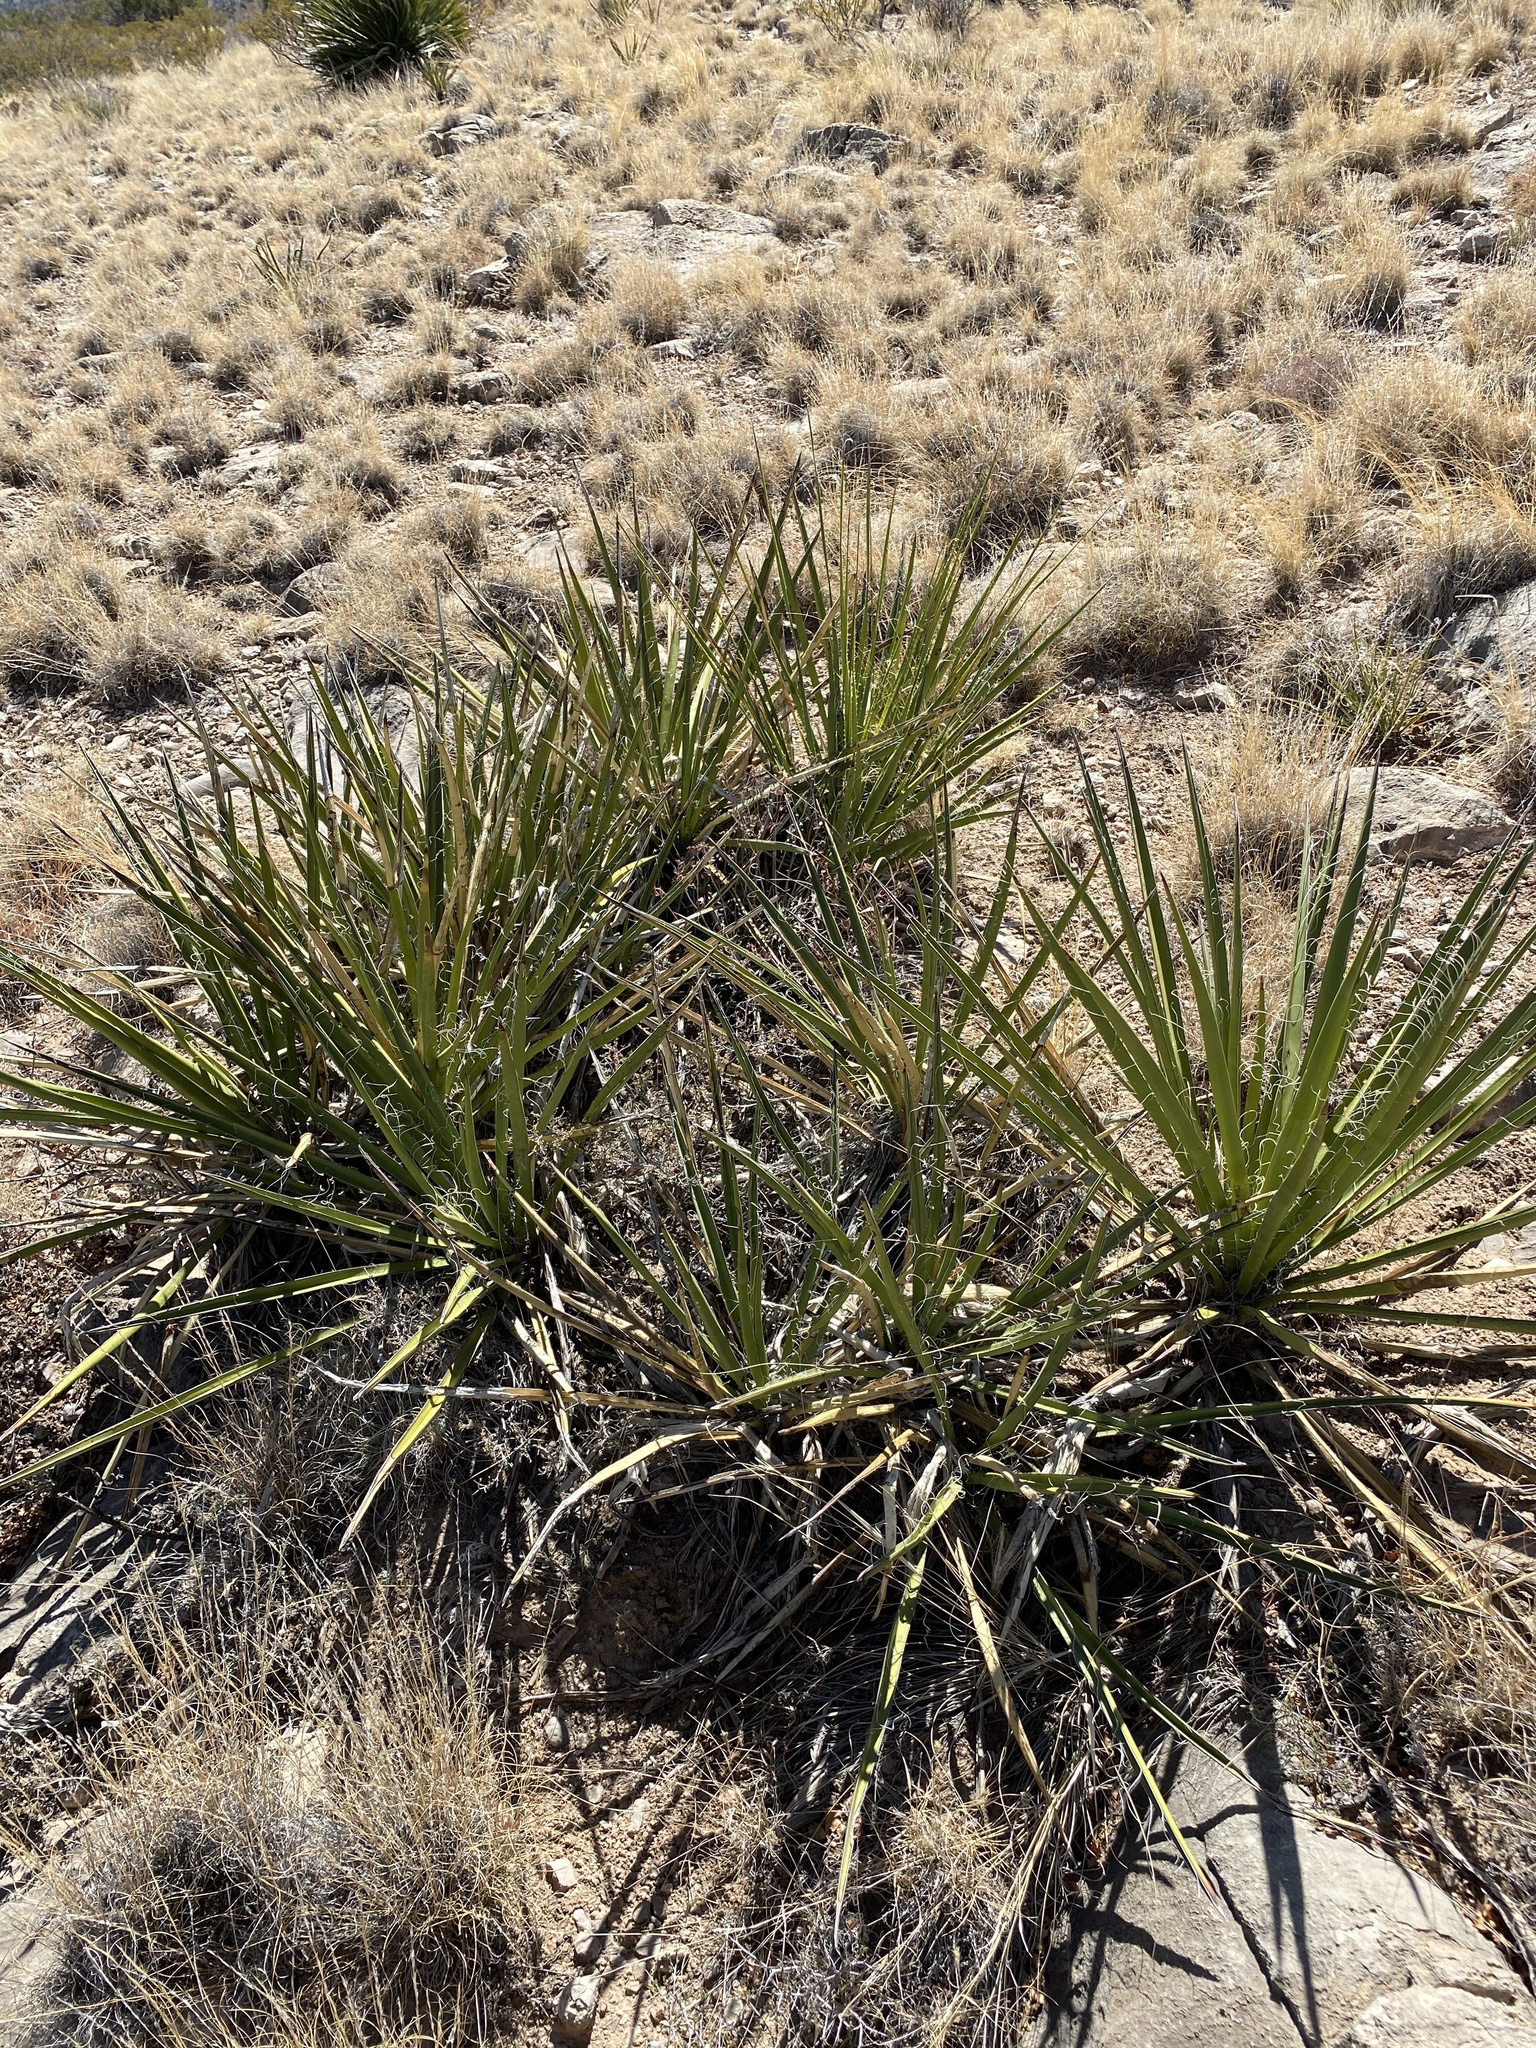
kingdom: Plantae
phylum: Tracheophyta
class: Liliopsida
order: Asparagales
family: Asparagaceae
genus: Yucca
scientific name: Yucca baccata
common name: Banana yucca
